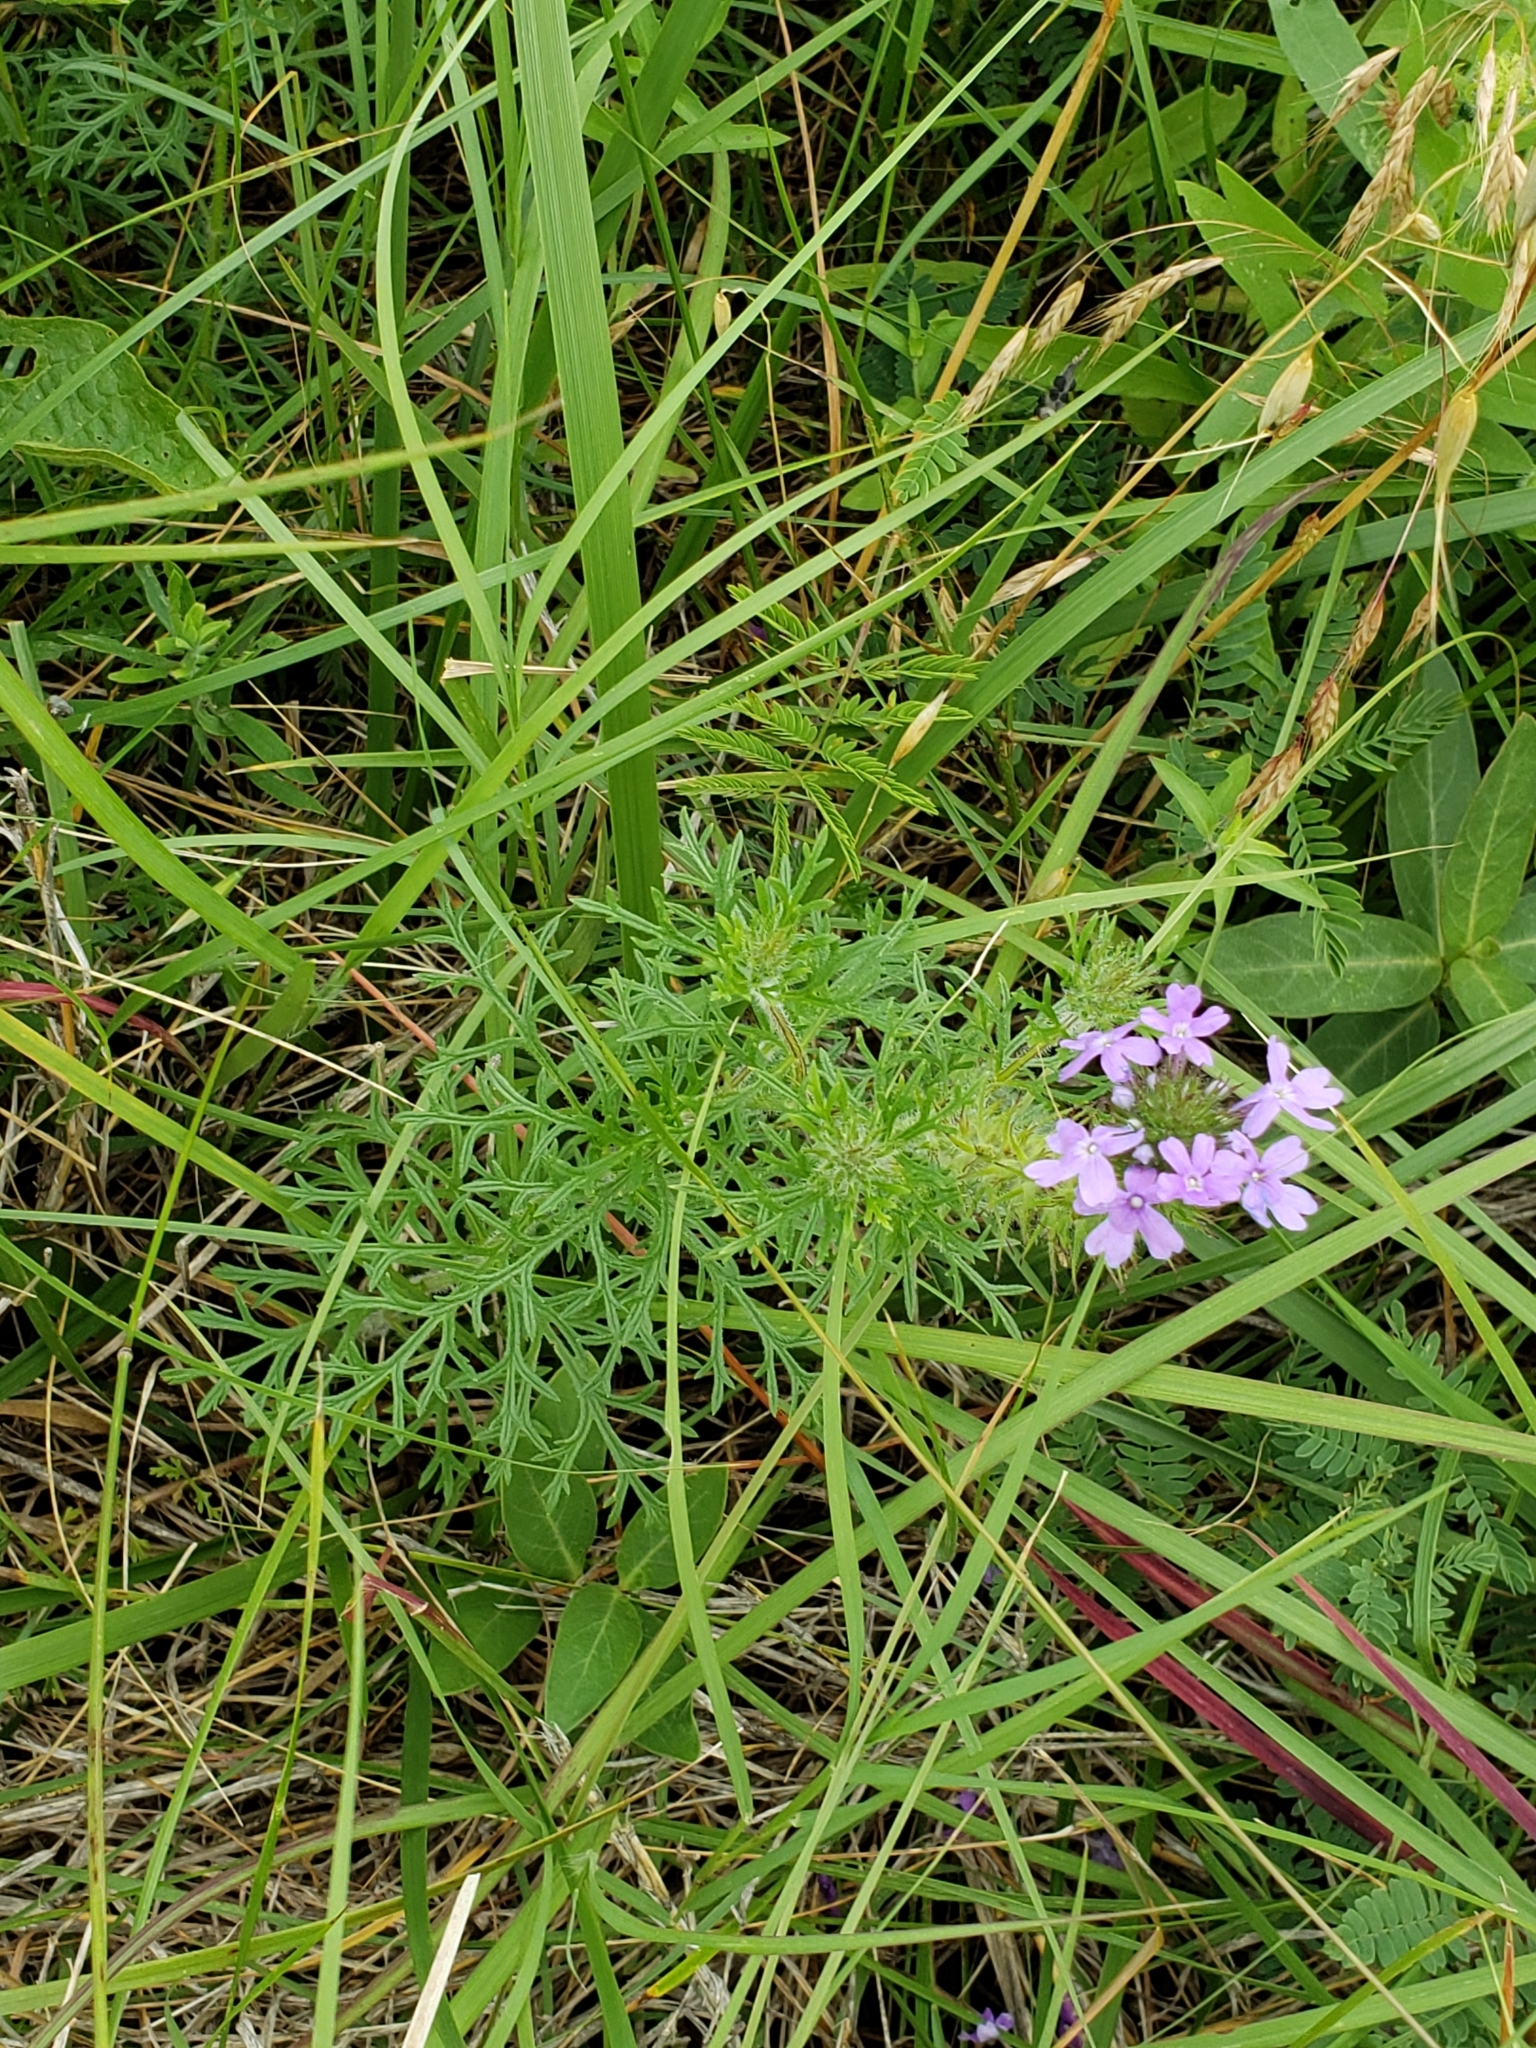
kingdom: Plantae
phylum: Tracheophyta
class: Magnoliopsida
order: Lamiales
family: Verbenaceae
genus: Verbena
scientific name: Verbena bipinnatifida
